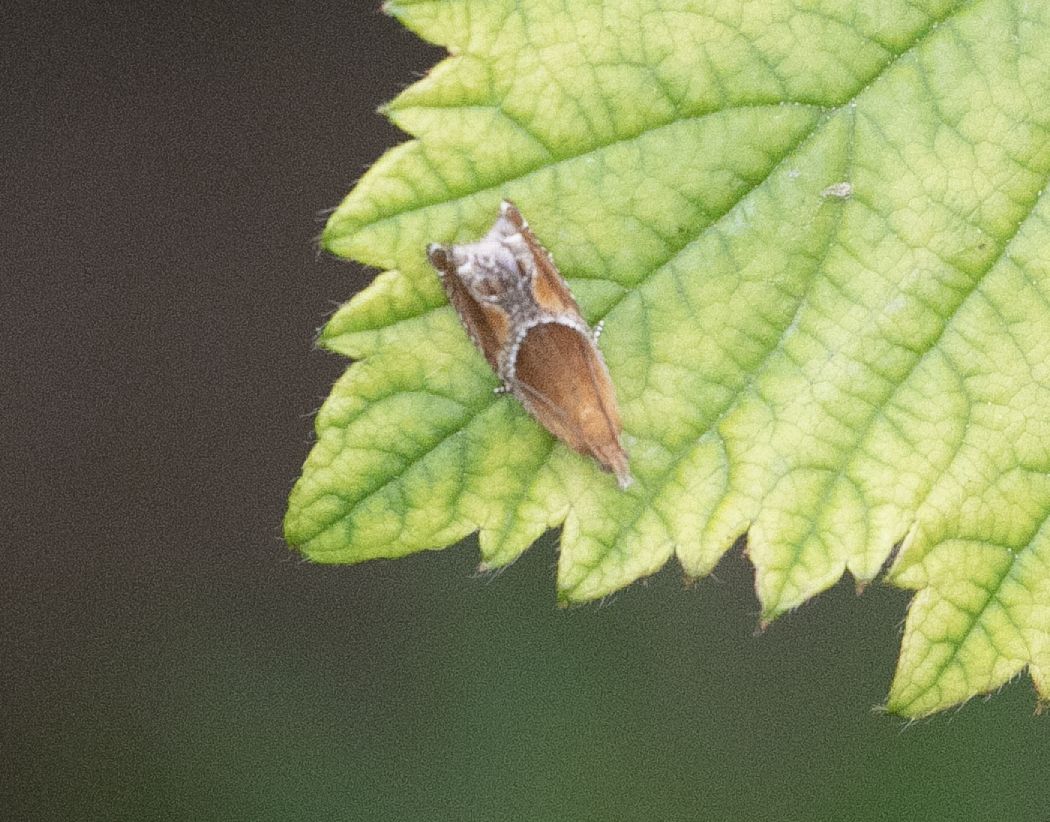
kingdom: Animalia
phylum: Arthropoda
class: Insecta
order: Lepidoptera
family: Tortricidae
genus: Ancylis
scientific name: Ancylis obtusana
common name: Small buckthorn roller
